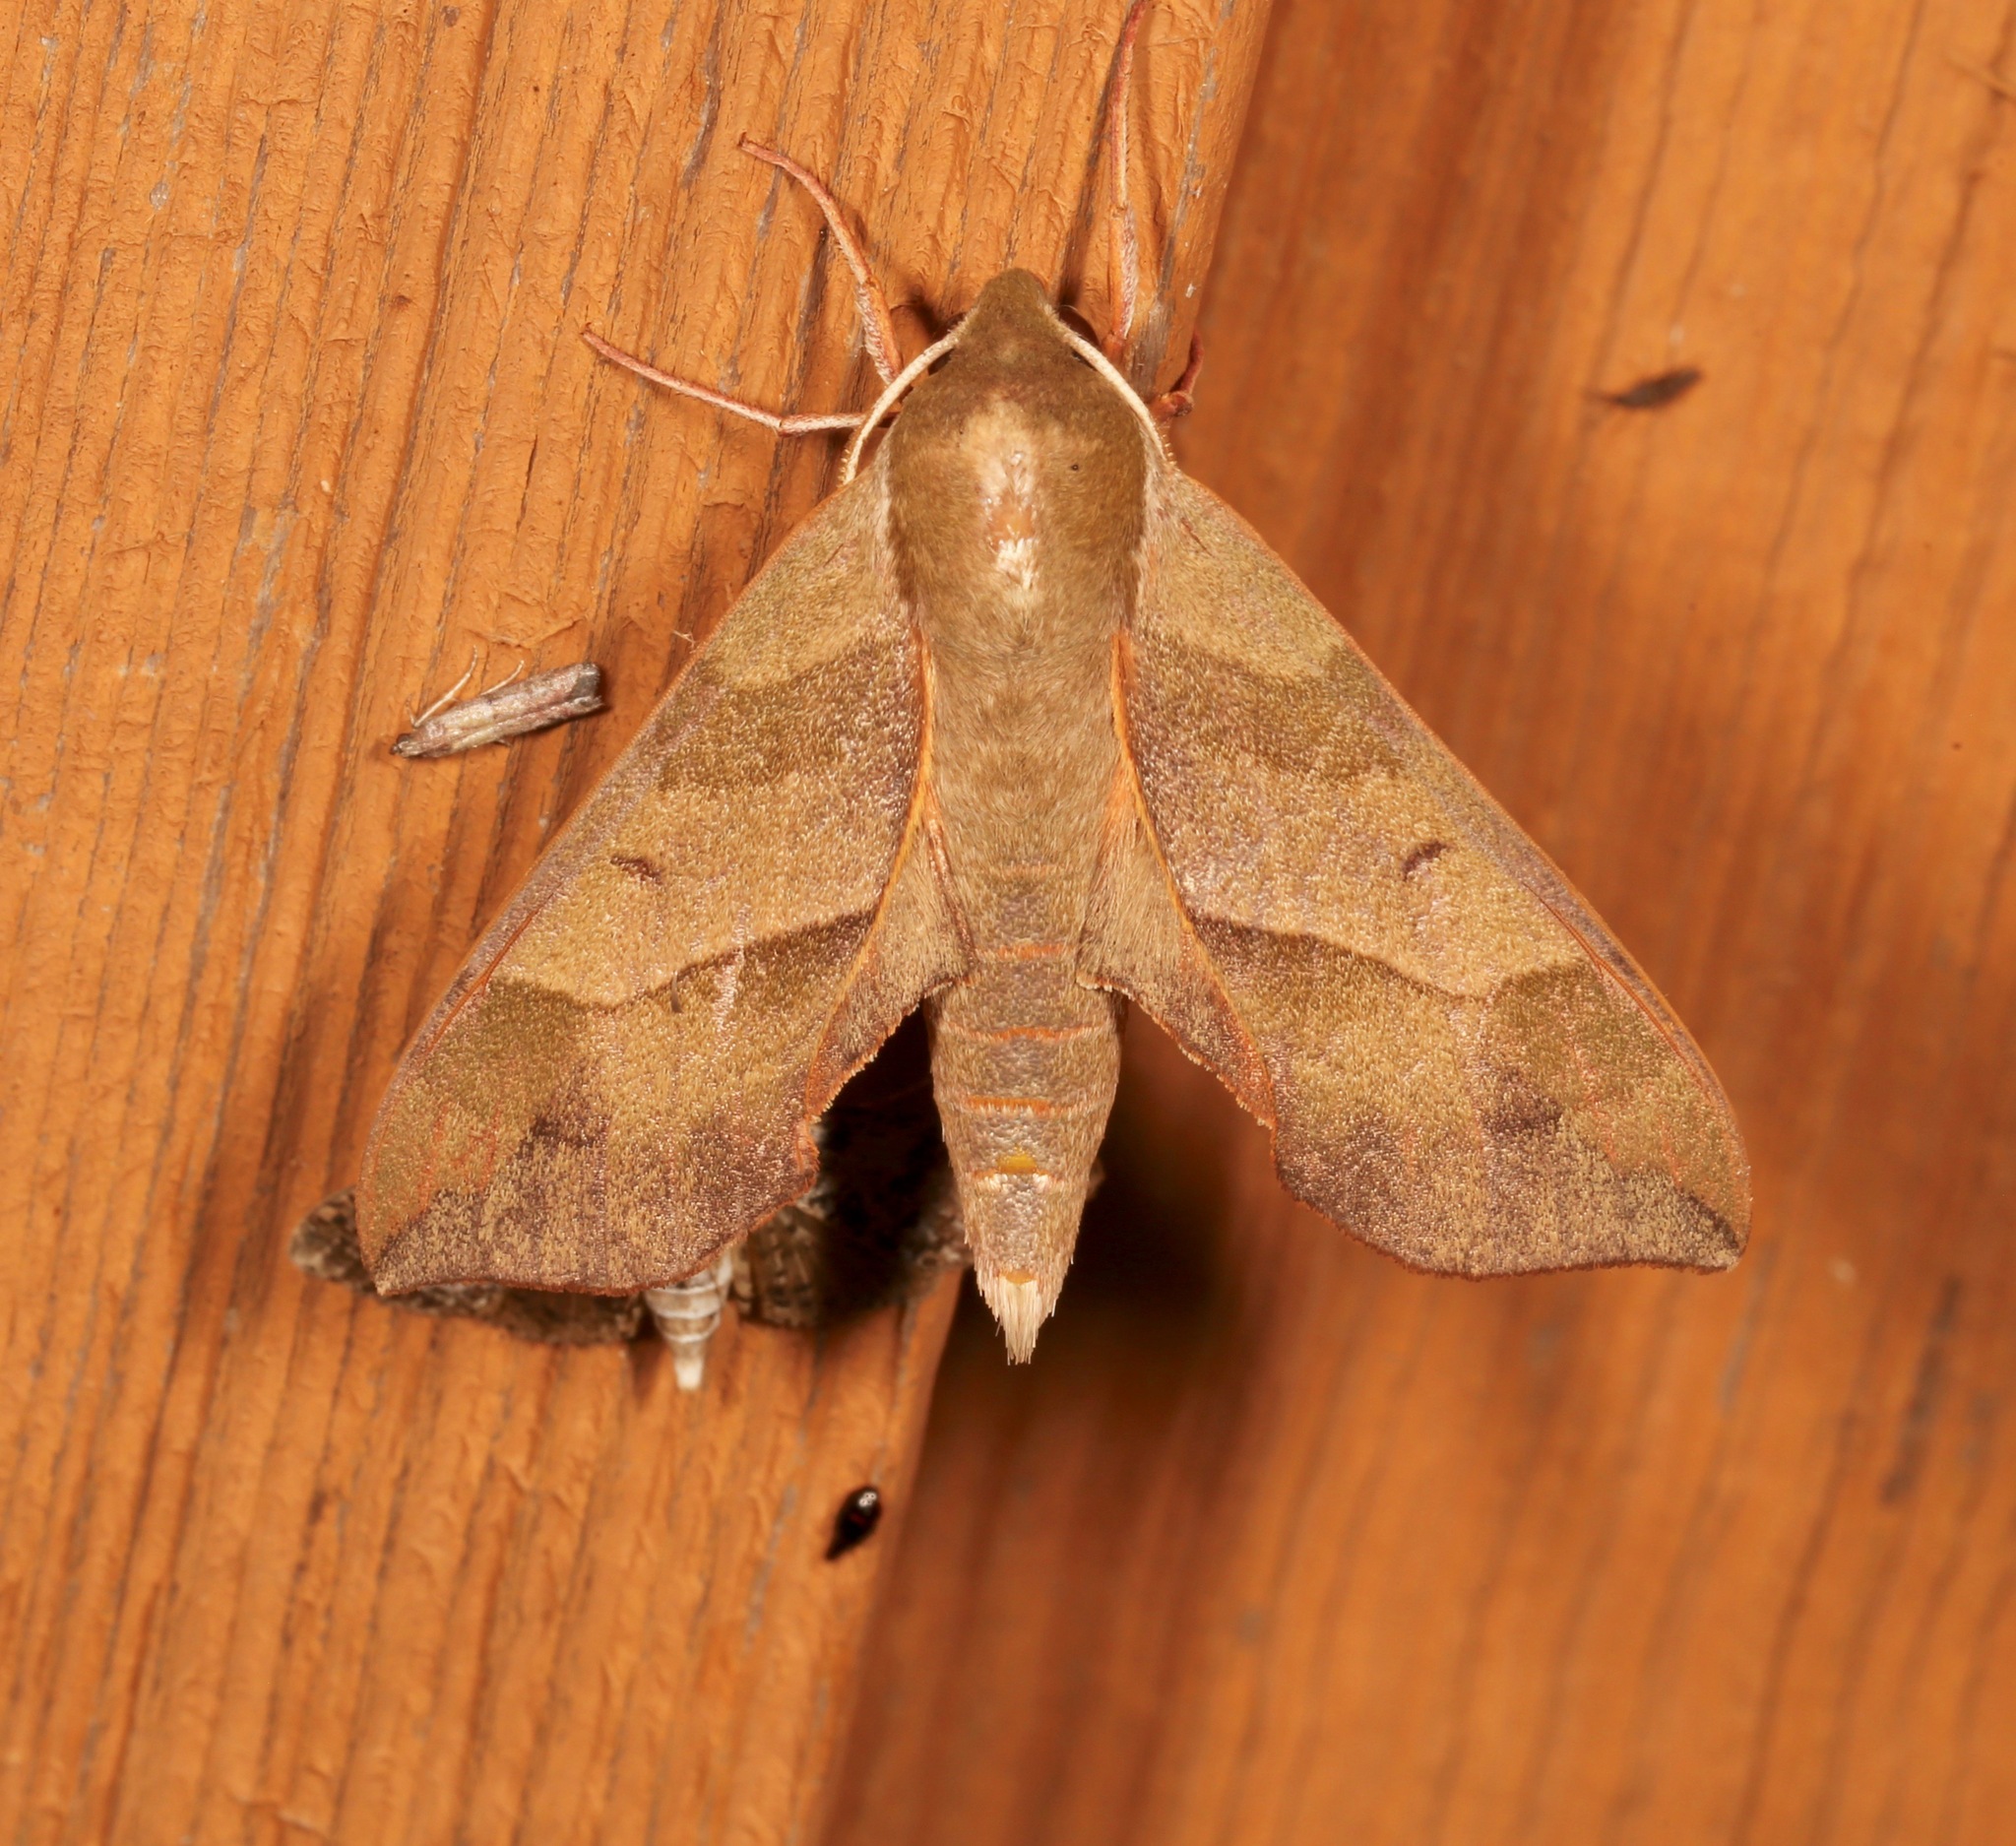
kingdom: Animalia
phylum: Arthropoda
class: Insecta
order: Lepidoptera
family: Sphingidae
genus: Darapsa
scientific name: Darapsa myron
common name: Hog sphinx
